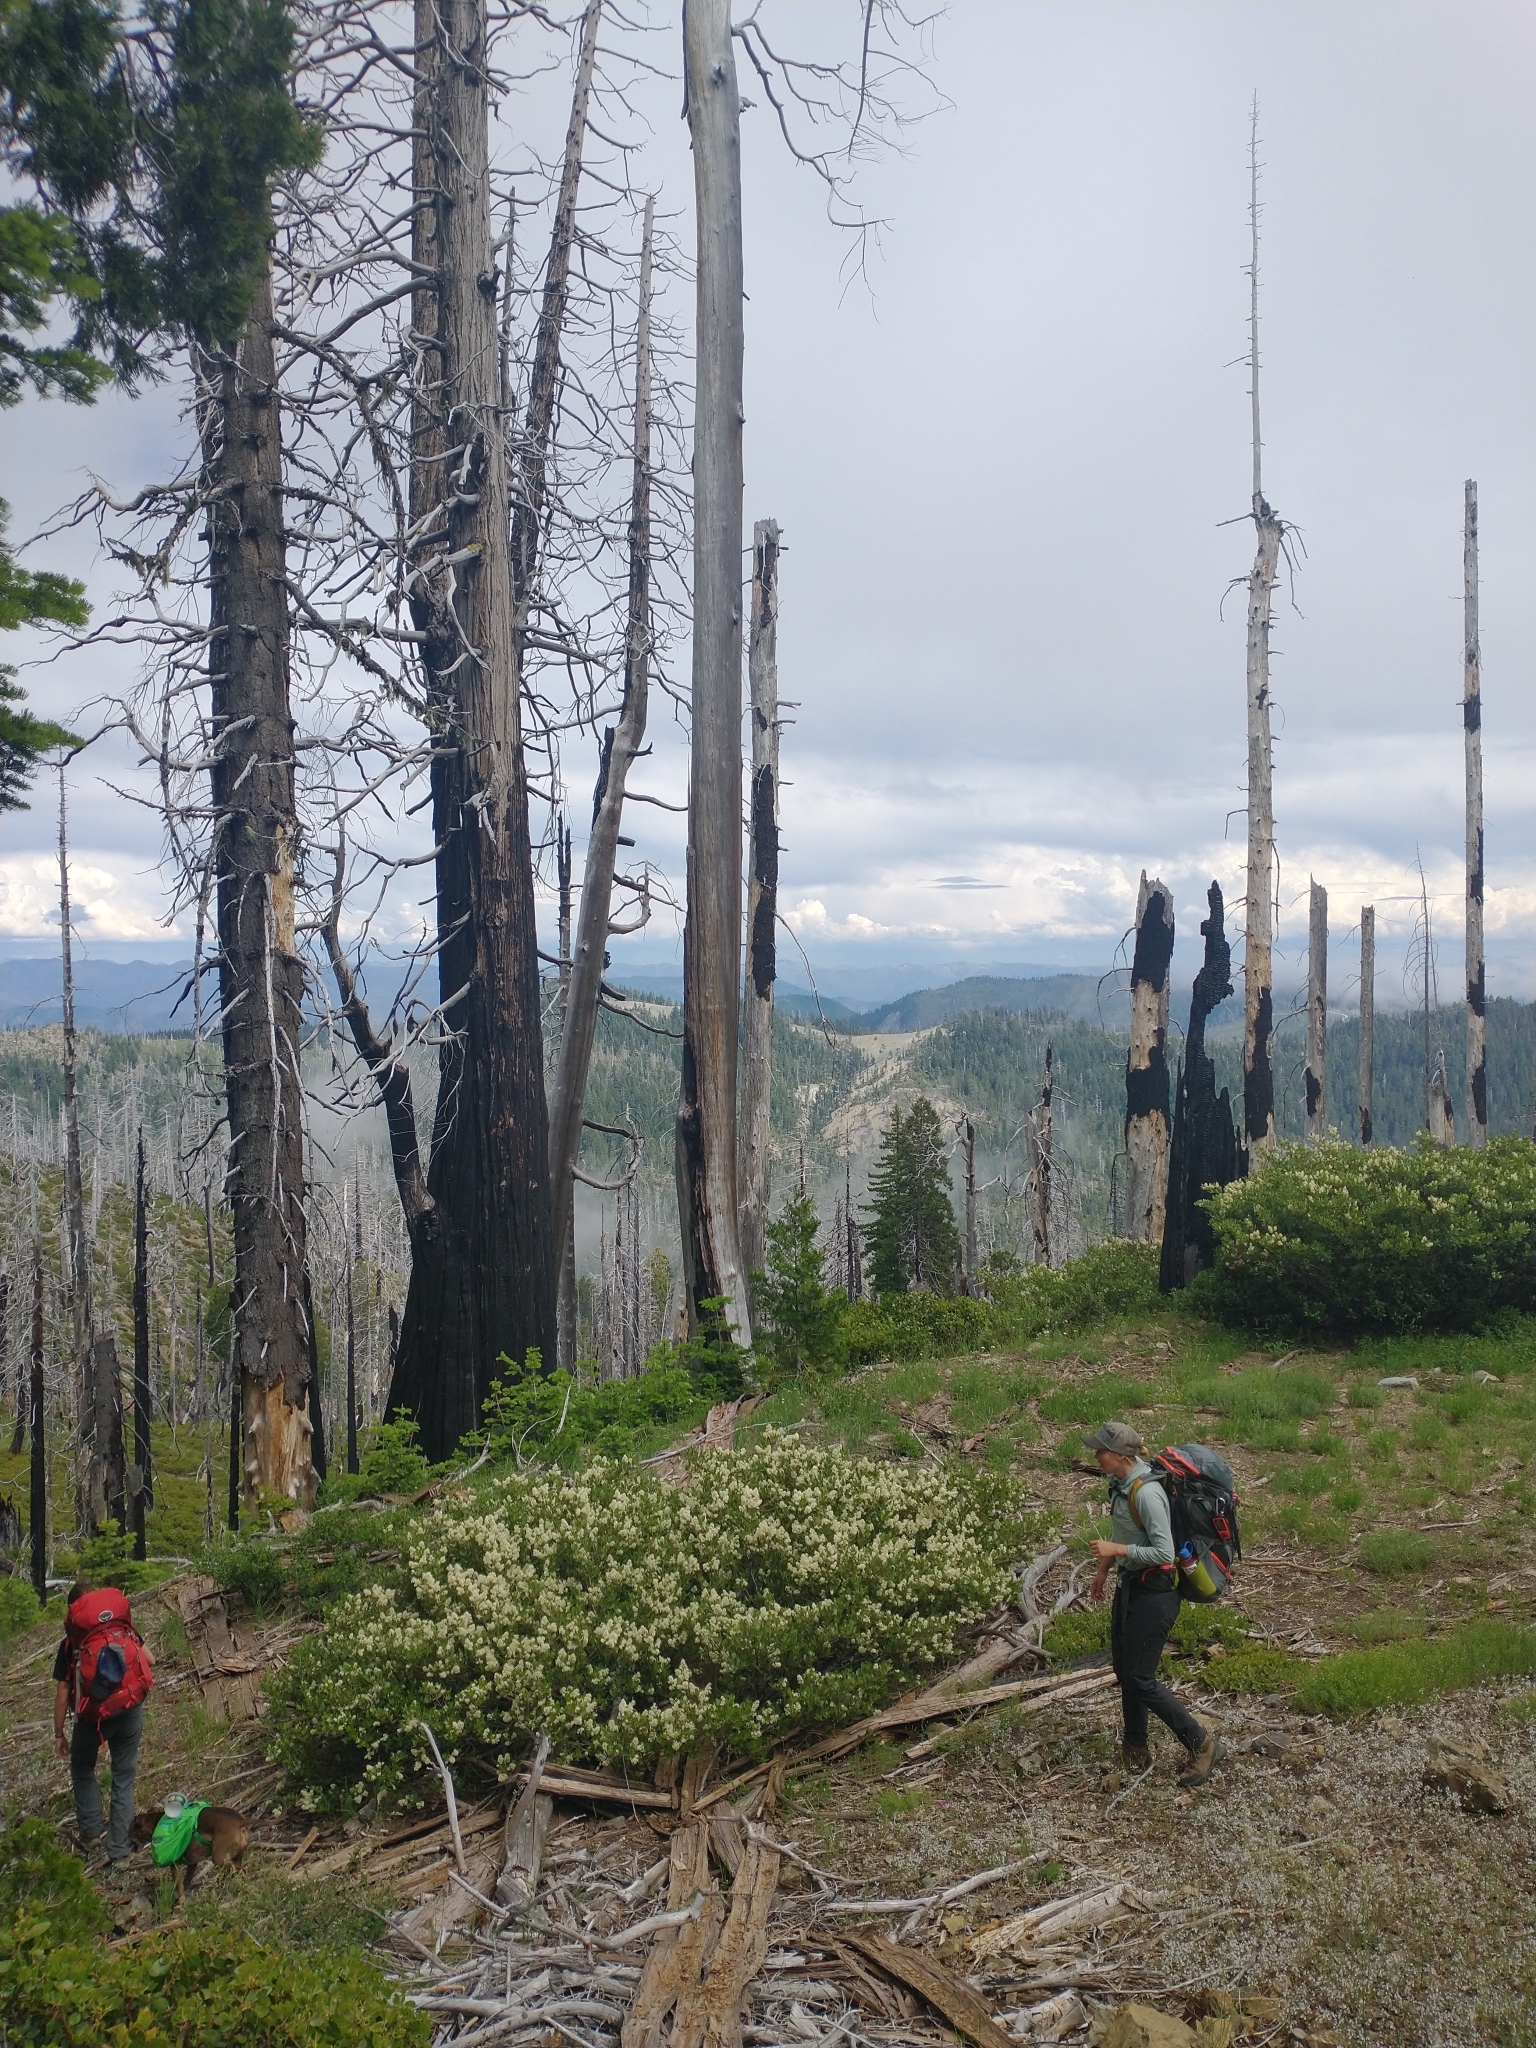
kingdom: Plantae
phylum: Tracheophyta
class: Magnoliopsida
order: Rosales
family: Rhamnaceae
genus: Ceanothus
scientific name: Ceanothus velutinus
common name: Snowbrush
